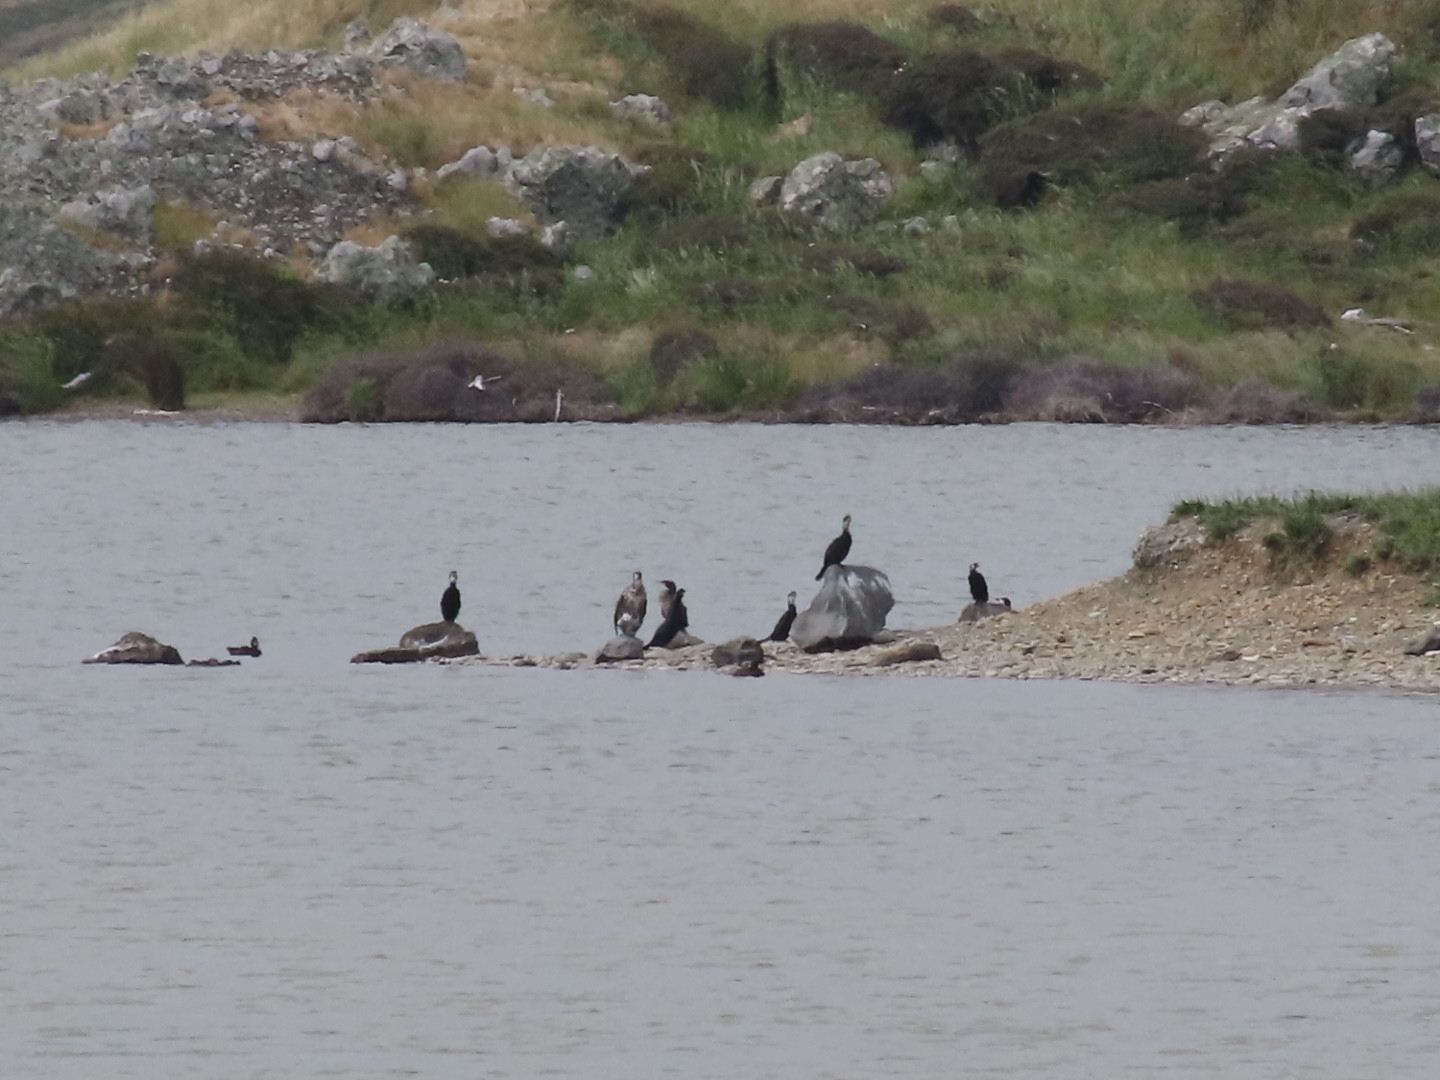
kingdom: Animalia
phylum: Chordata
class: Aves
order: Suliformes
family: Phalacrocoracidae
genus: Microcarbo
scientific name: Microcarbo melanoleucos
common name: Little pied cormorant
